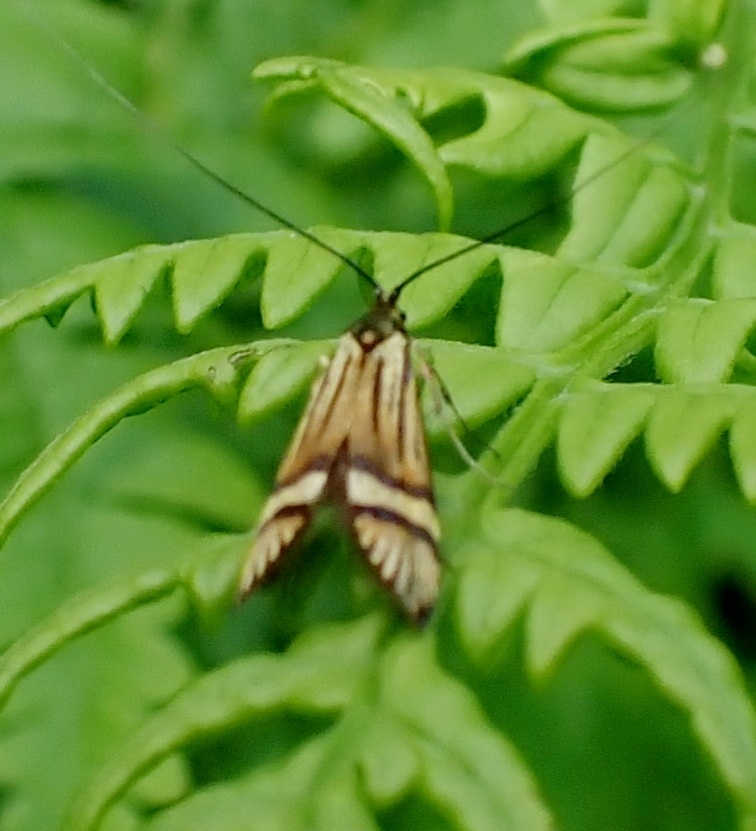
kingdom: Animalia
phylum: Arthropoda
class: Insecta
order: Lepidoptera
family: Adelidae
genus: Nemophora
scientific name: Nemophora degeerella
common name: Yellow-barred long-horn
